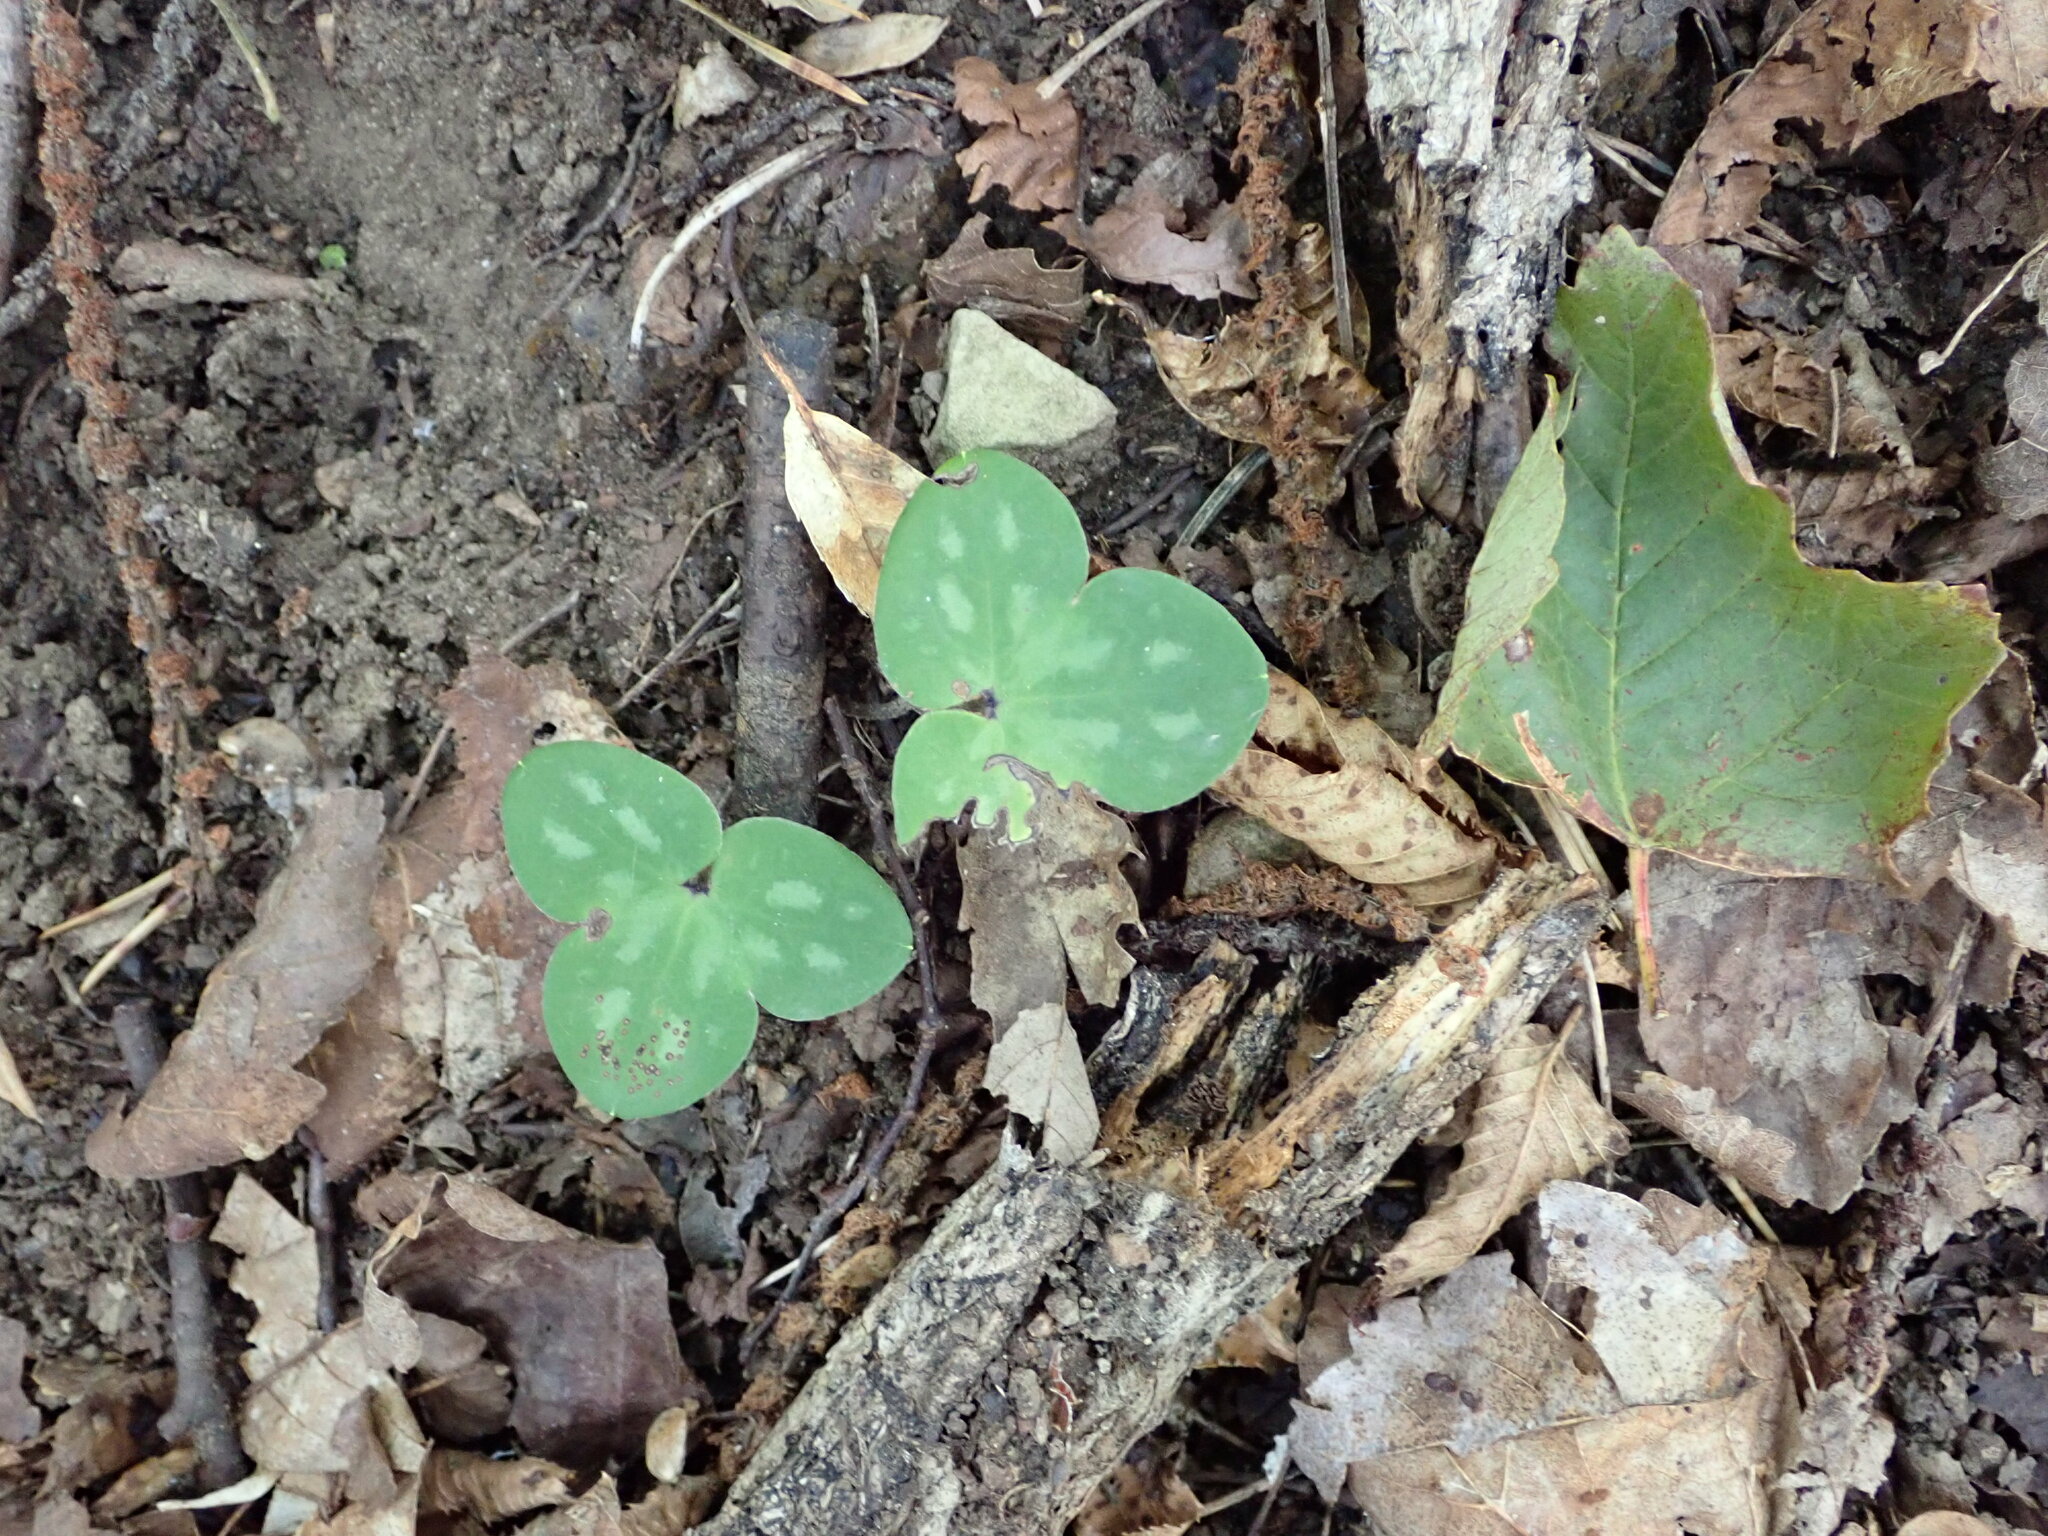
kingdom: Plantae
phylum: Tracheophyta
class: Magnoliopsida
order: Ranunculales
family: Ranunculaceae
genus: Hepatica
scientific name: Hepatica nobilis
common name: Liverleaf
